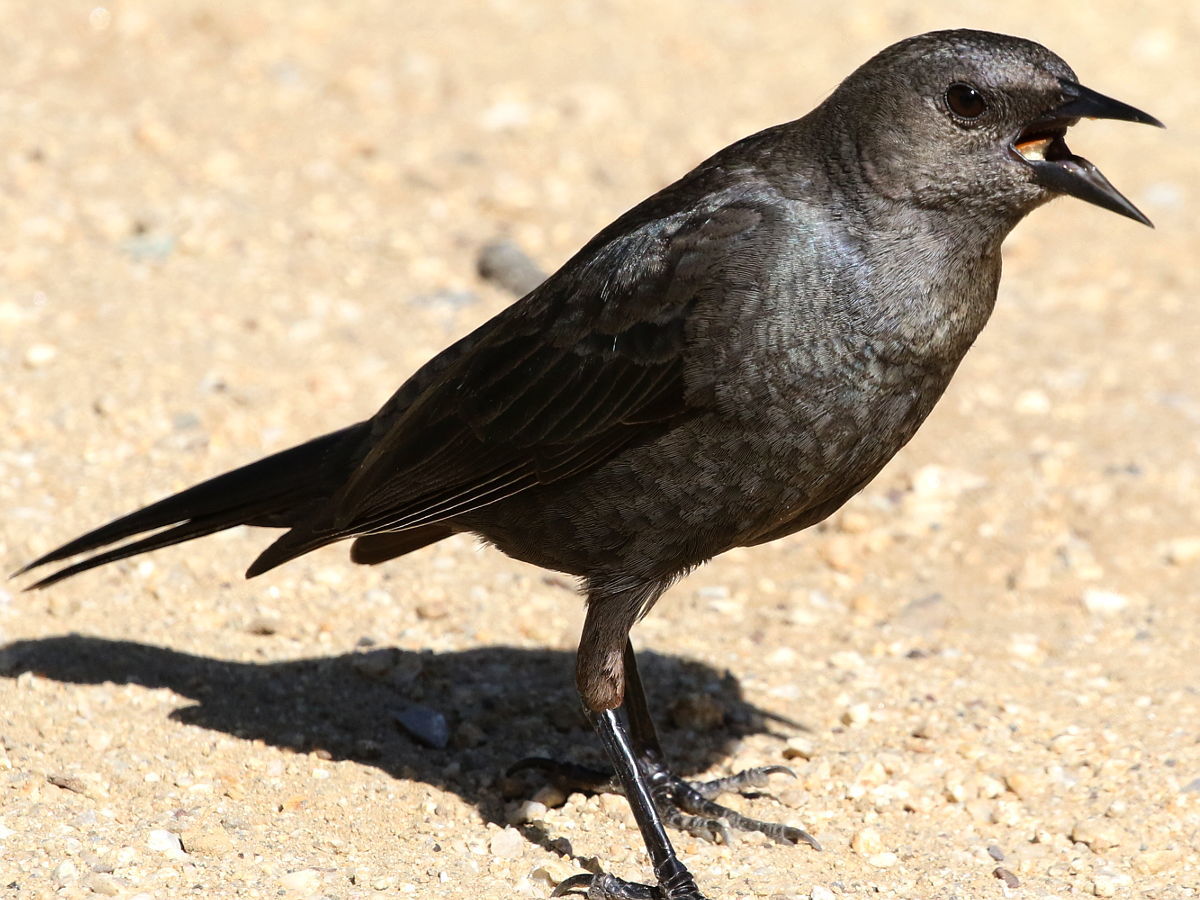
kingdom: Animalia
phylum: Chordata
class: Aves
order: Passeriformes
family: Icteridae
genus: Euphagus
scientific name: Euphagus cyanocephalus
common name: Brewer's blackbird
